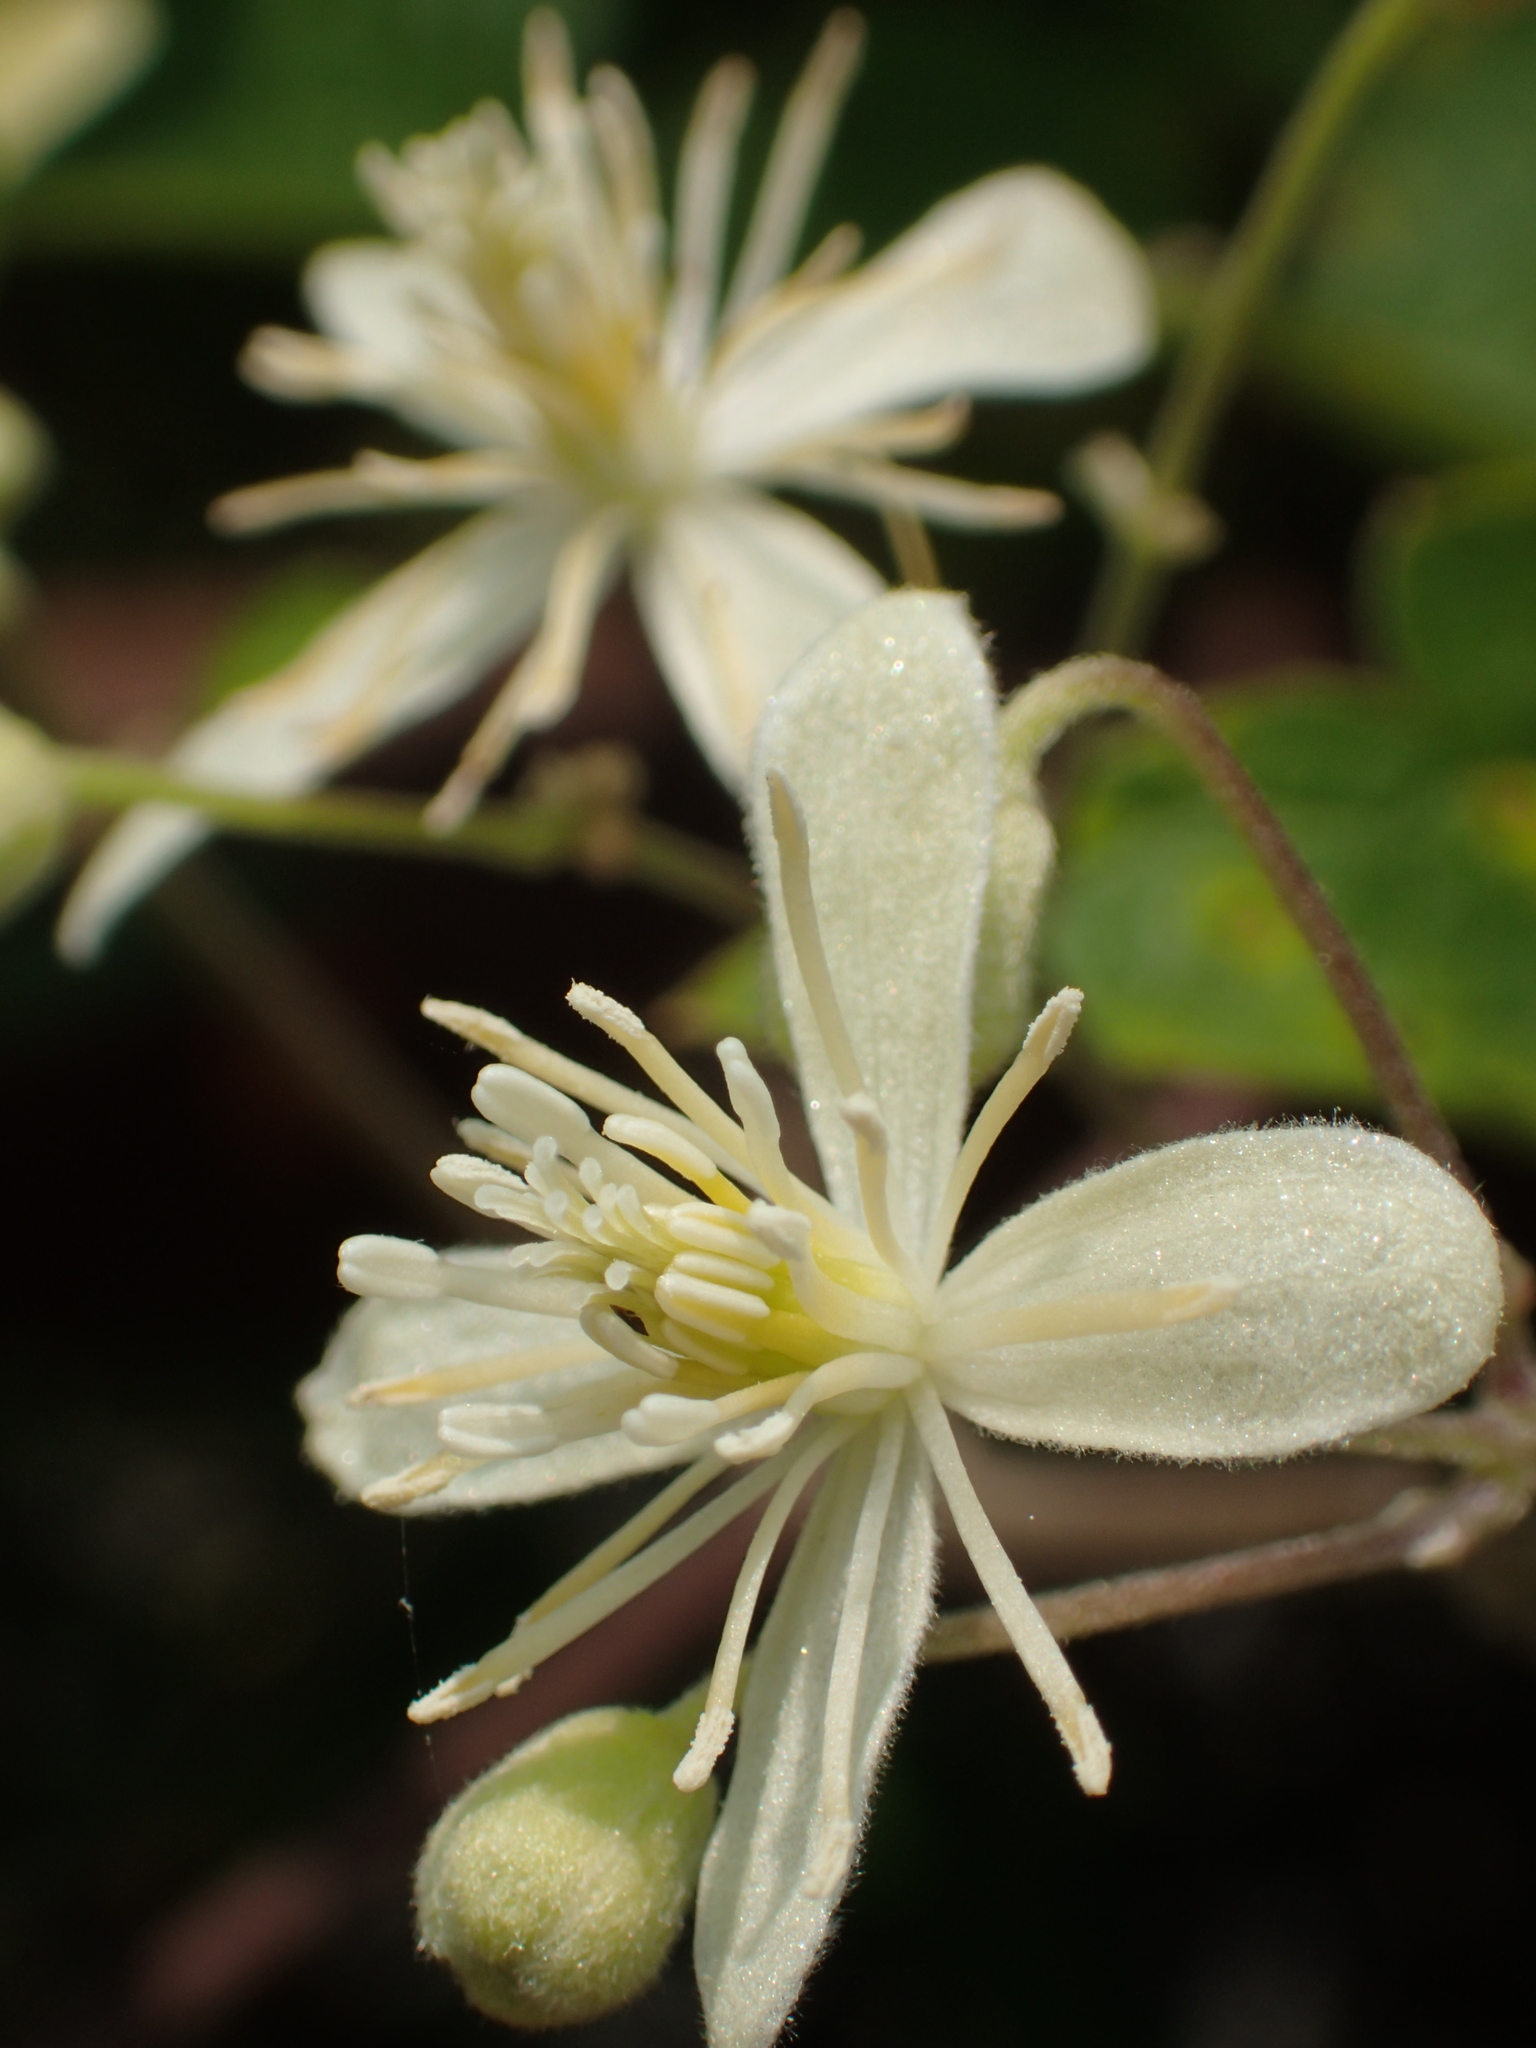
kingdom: Plantae
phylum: Tracheophyta
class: Magnoliopsida
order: Ranunculales
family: Ranunculaceae
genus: Clematis
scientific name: Clematis grata
